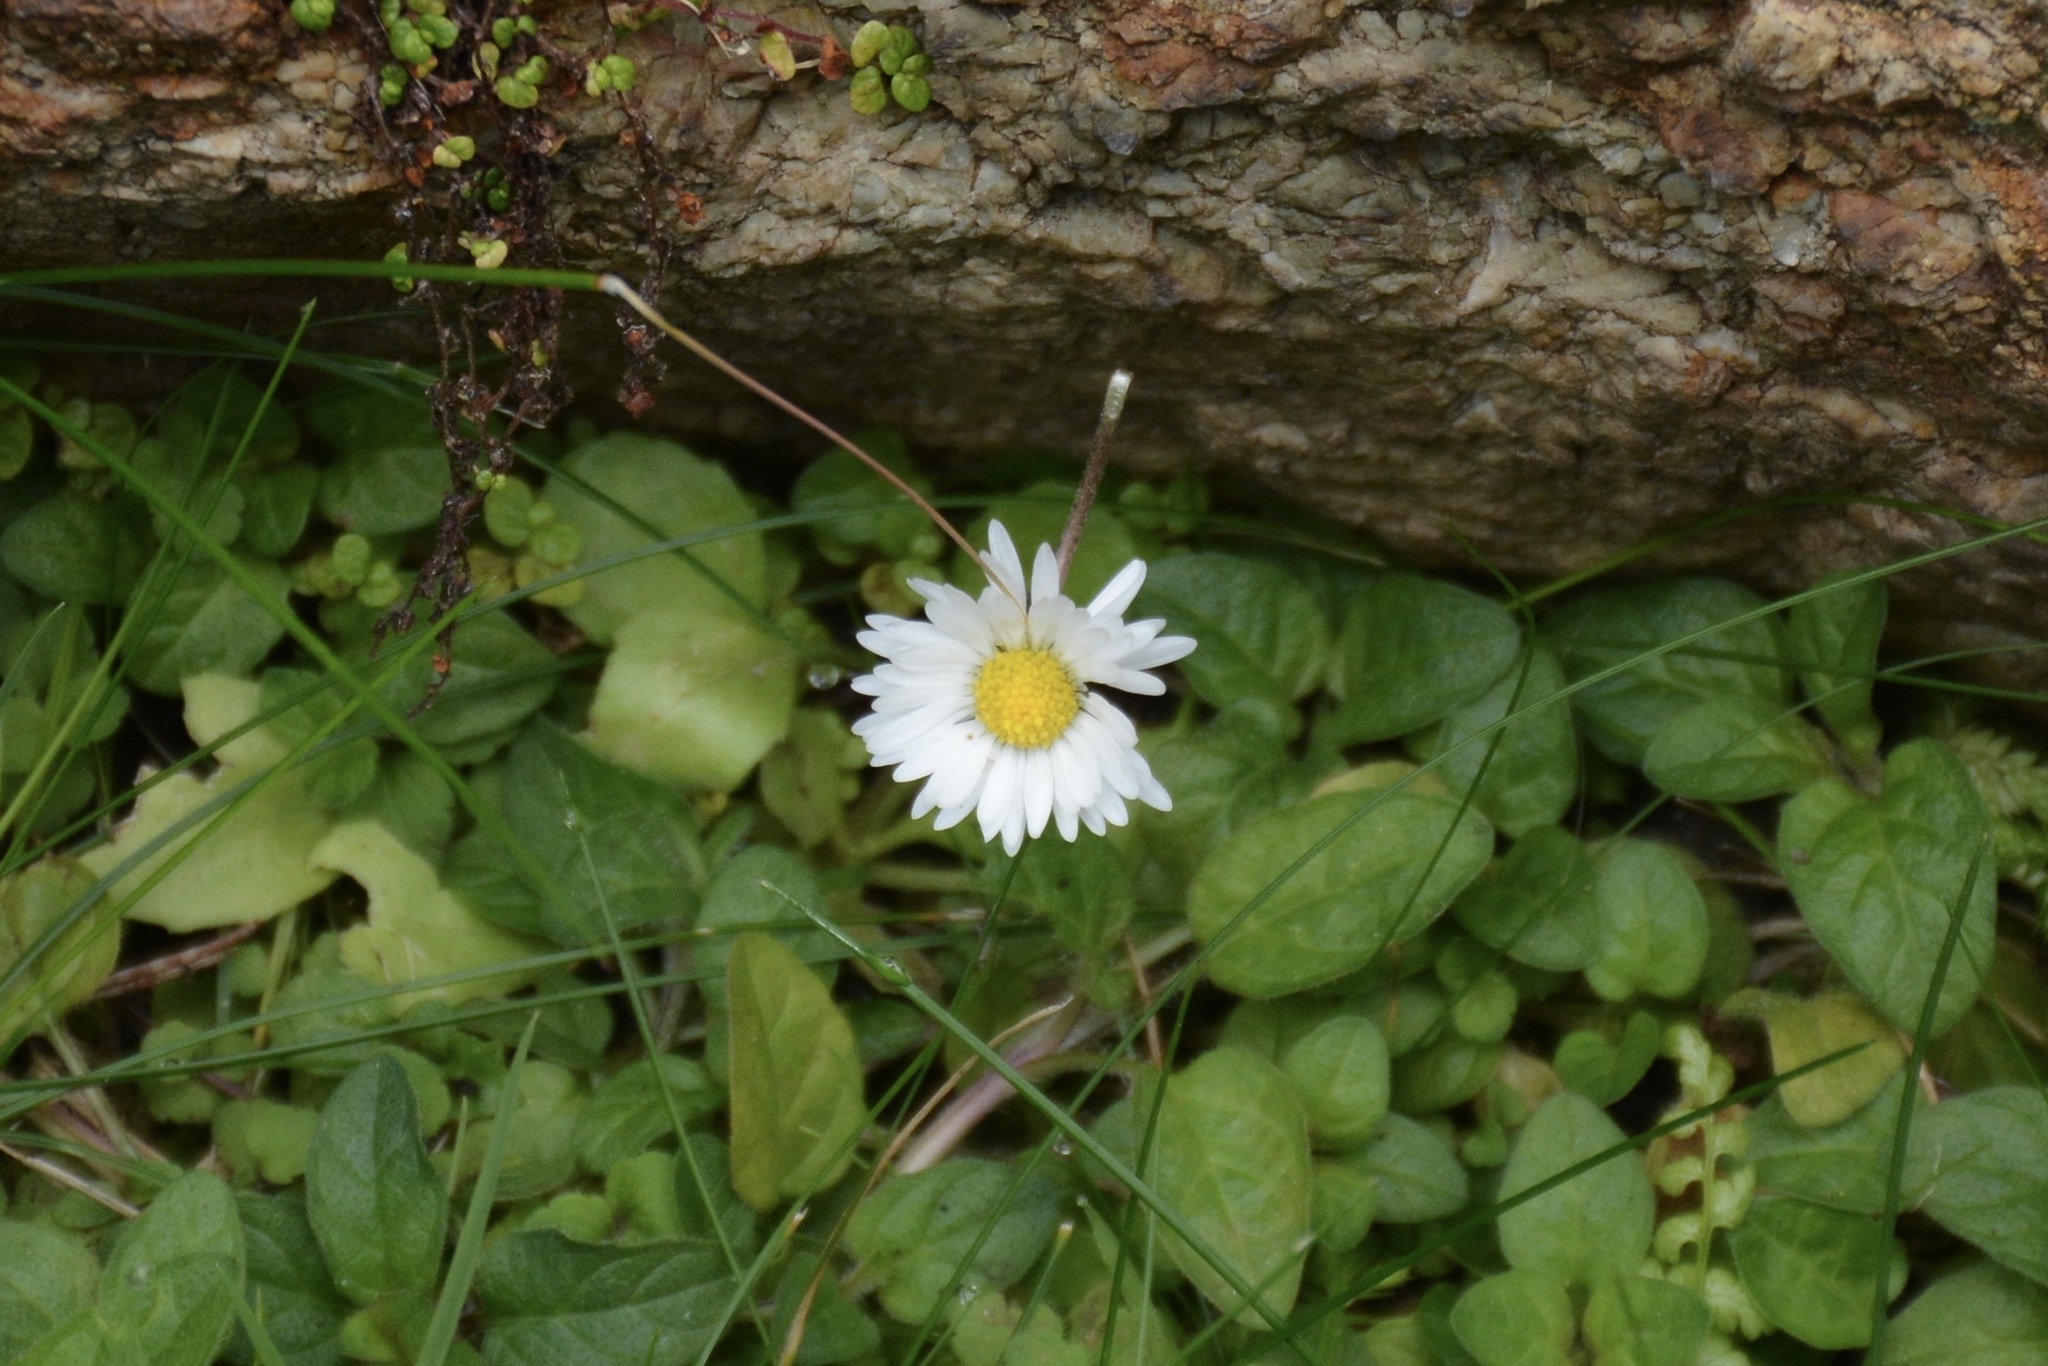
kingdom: Plantae
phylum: Tracheophyta
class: Magnoliopsida
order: Asterales
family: Asteraceae
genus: Bellis
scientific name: Bellis perennis
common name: Lawndaisy
